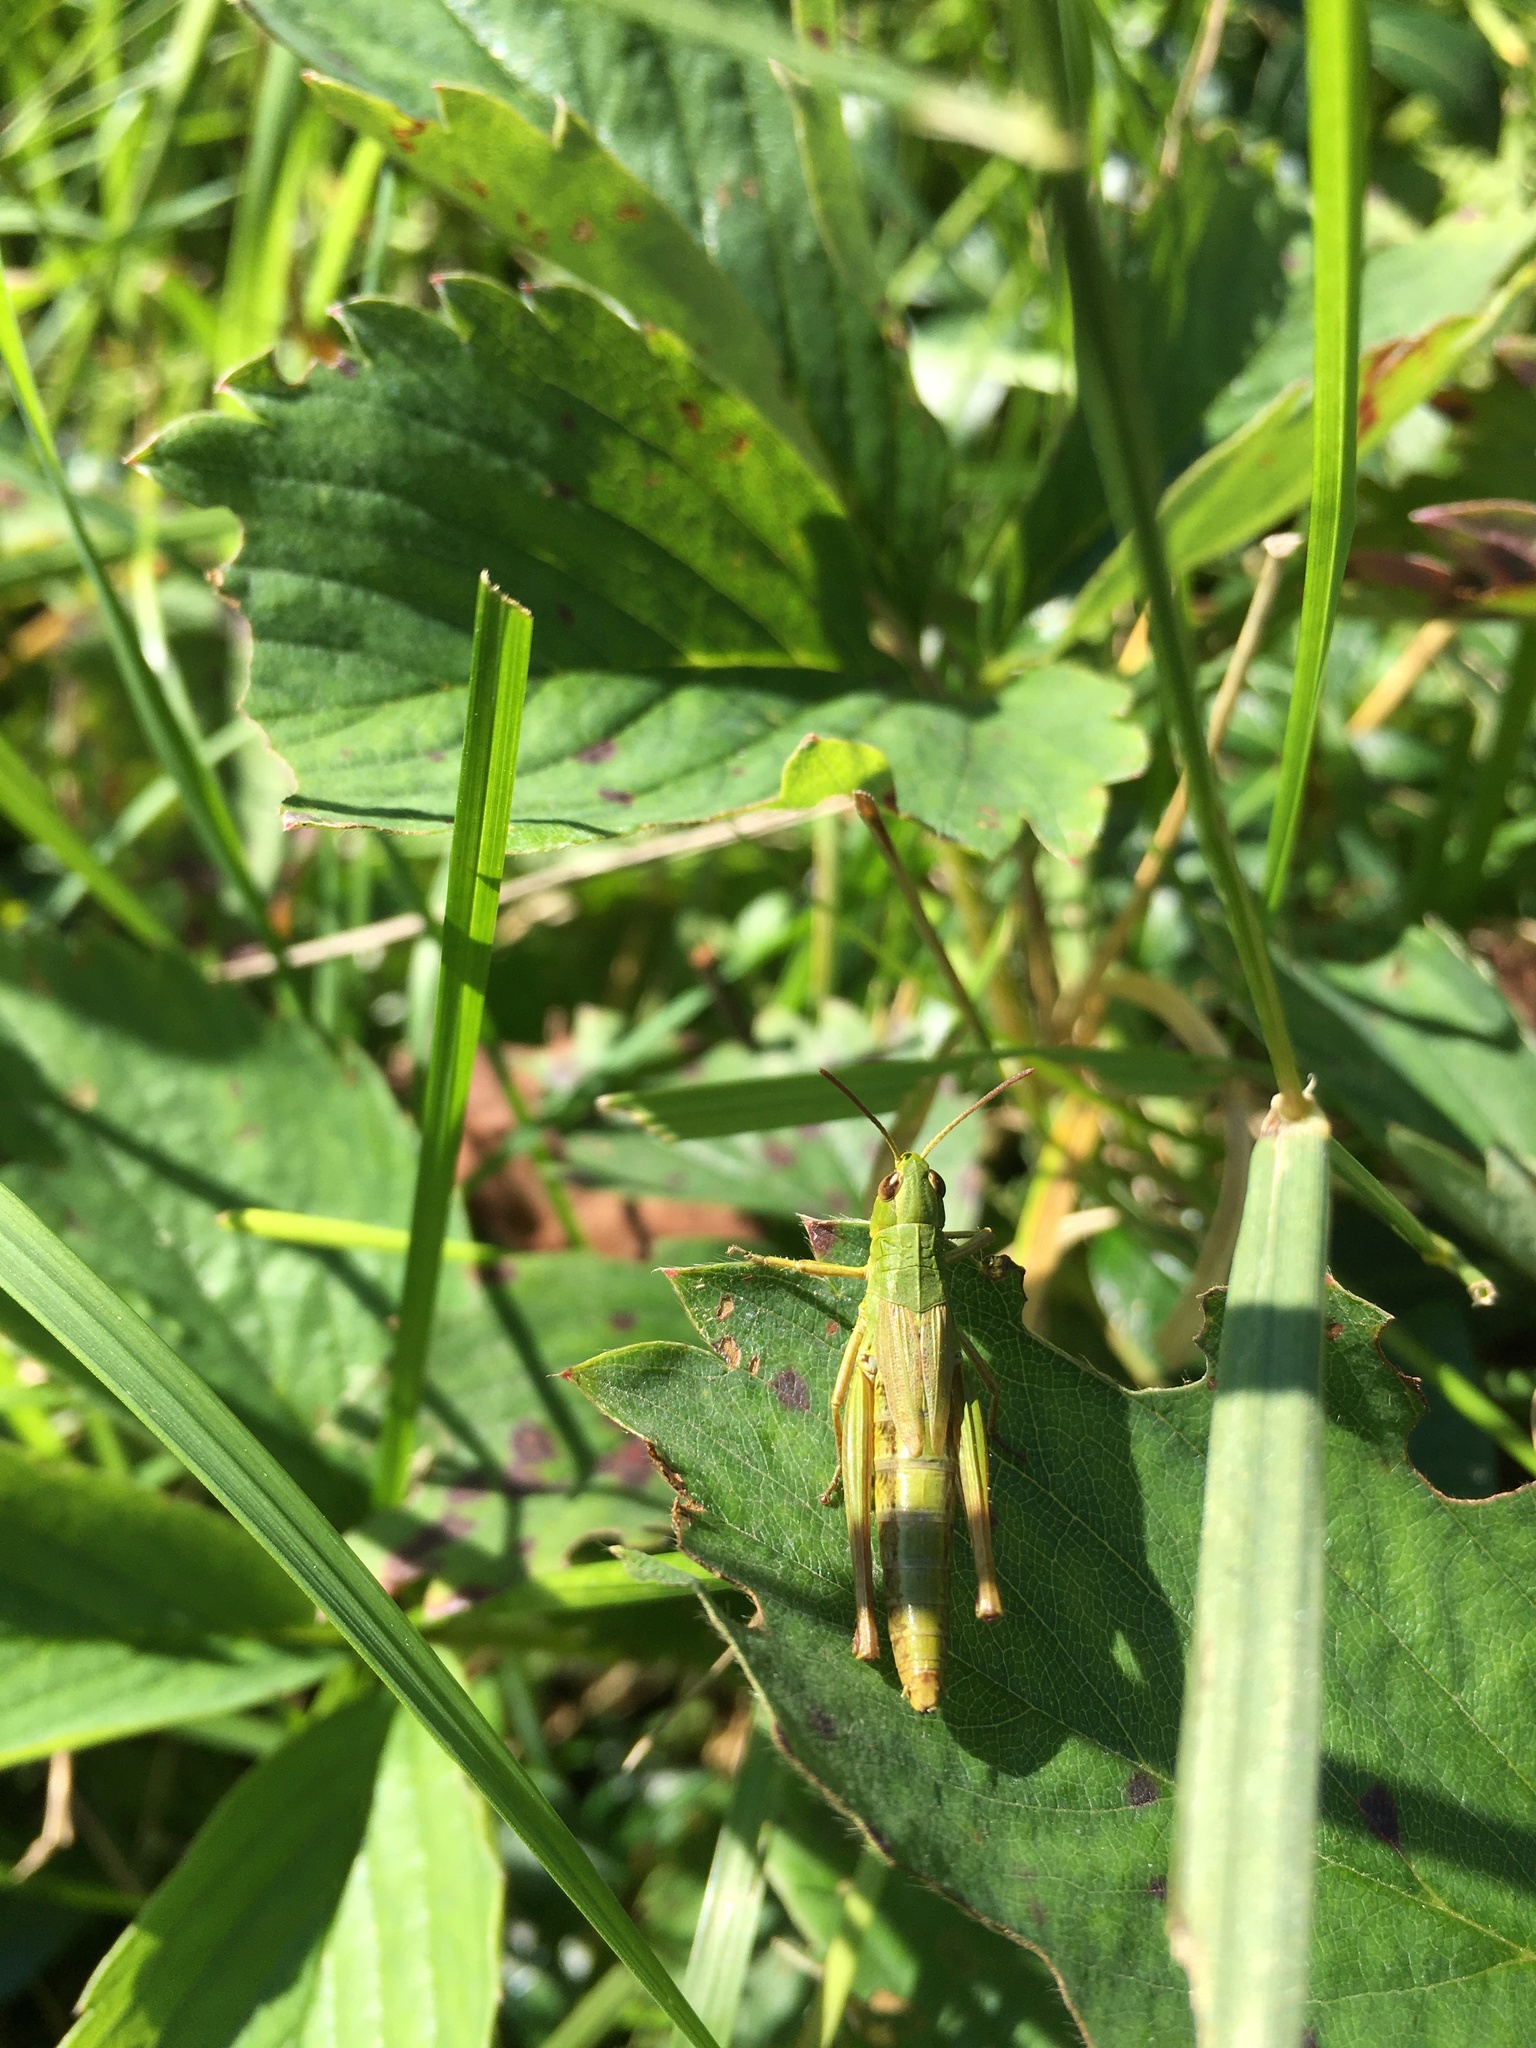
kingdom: Animalia
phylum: Arthropoda
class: Insecta
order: Orthoptera
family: Acrididae
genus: Pseudochorthippus
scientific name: Pseudochorthippus parallelus
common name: Meadow grasshopper
